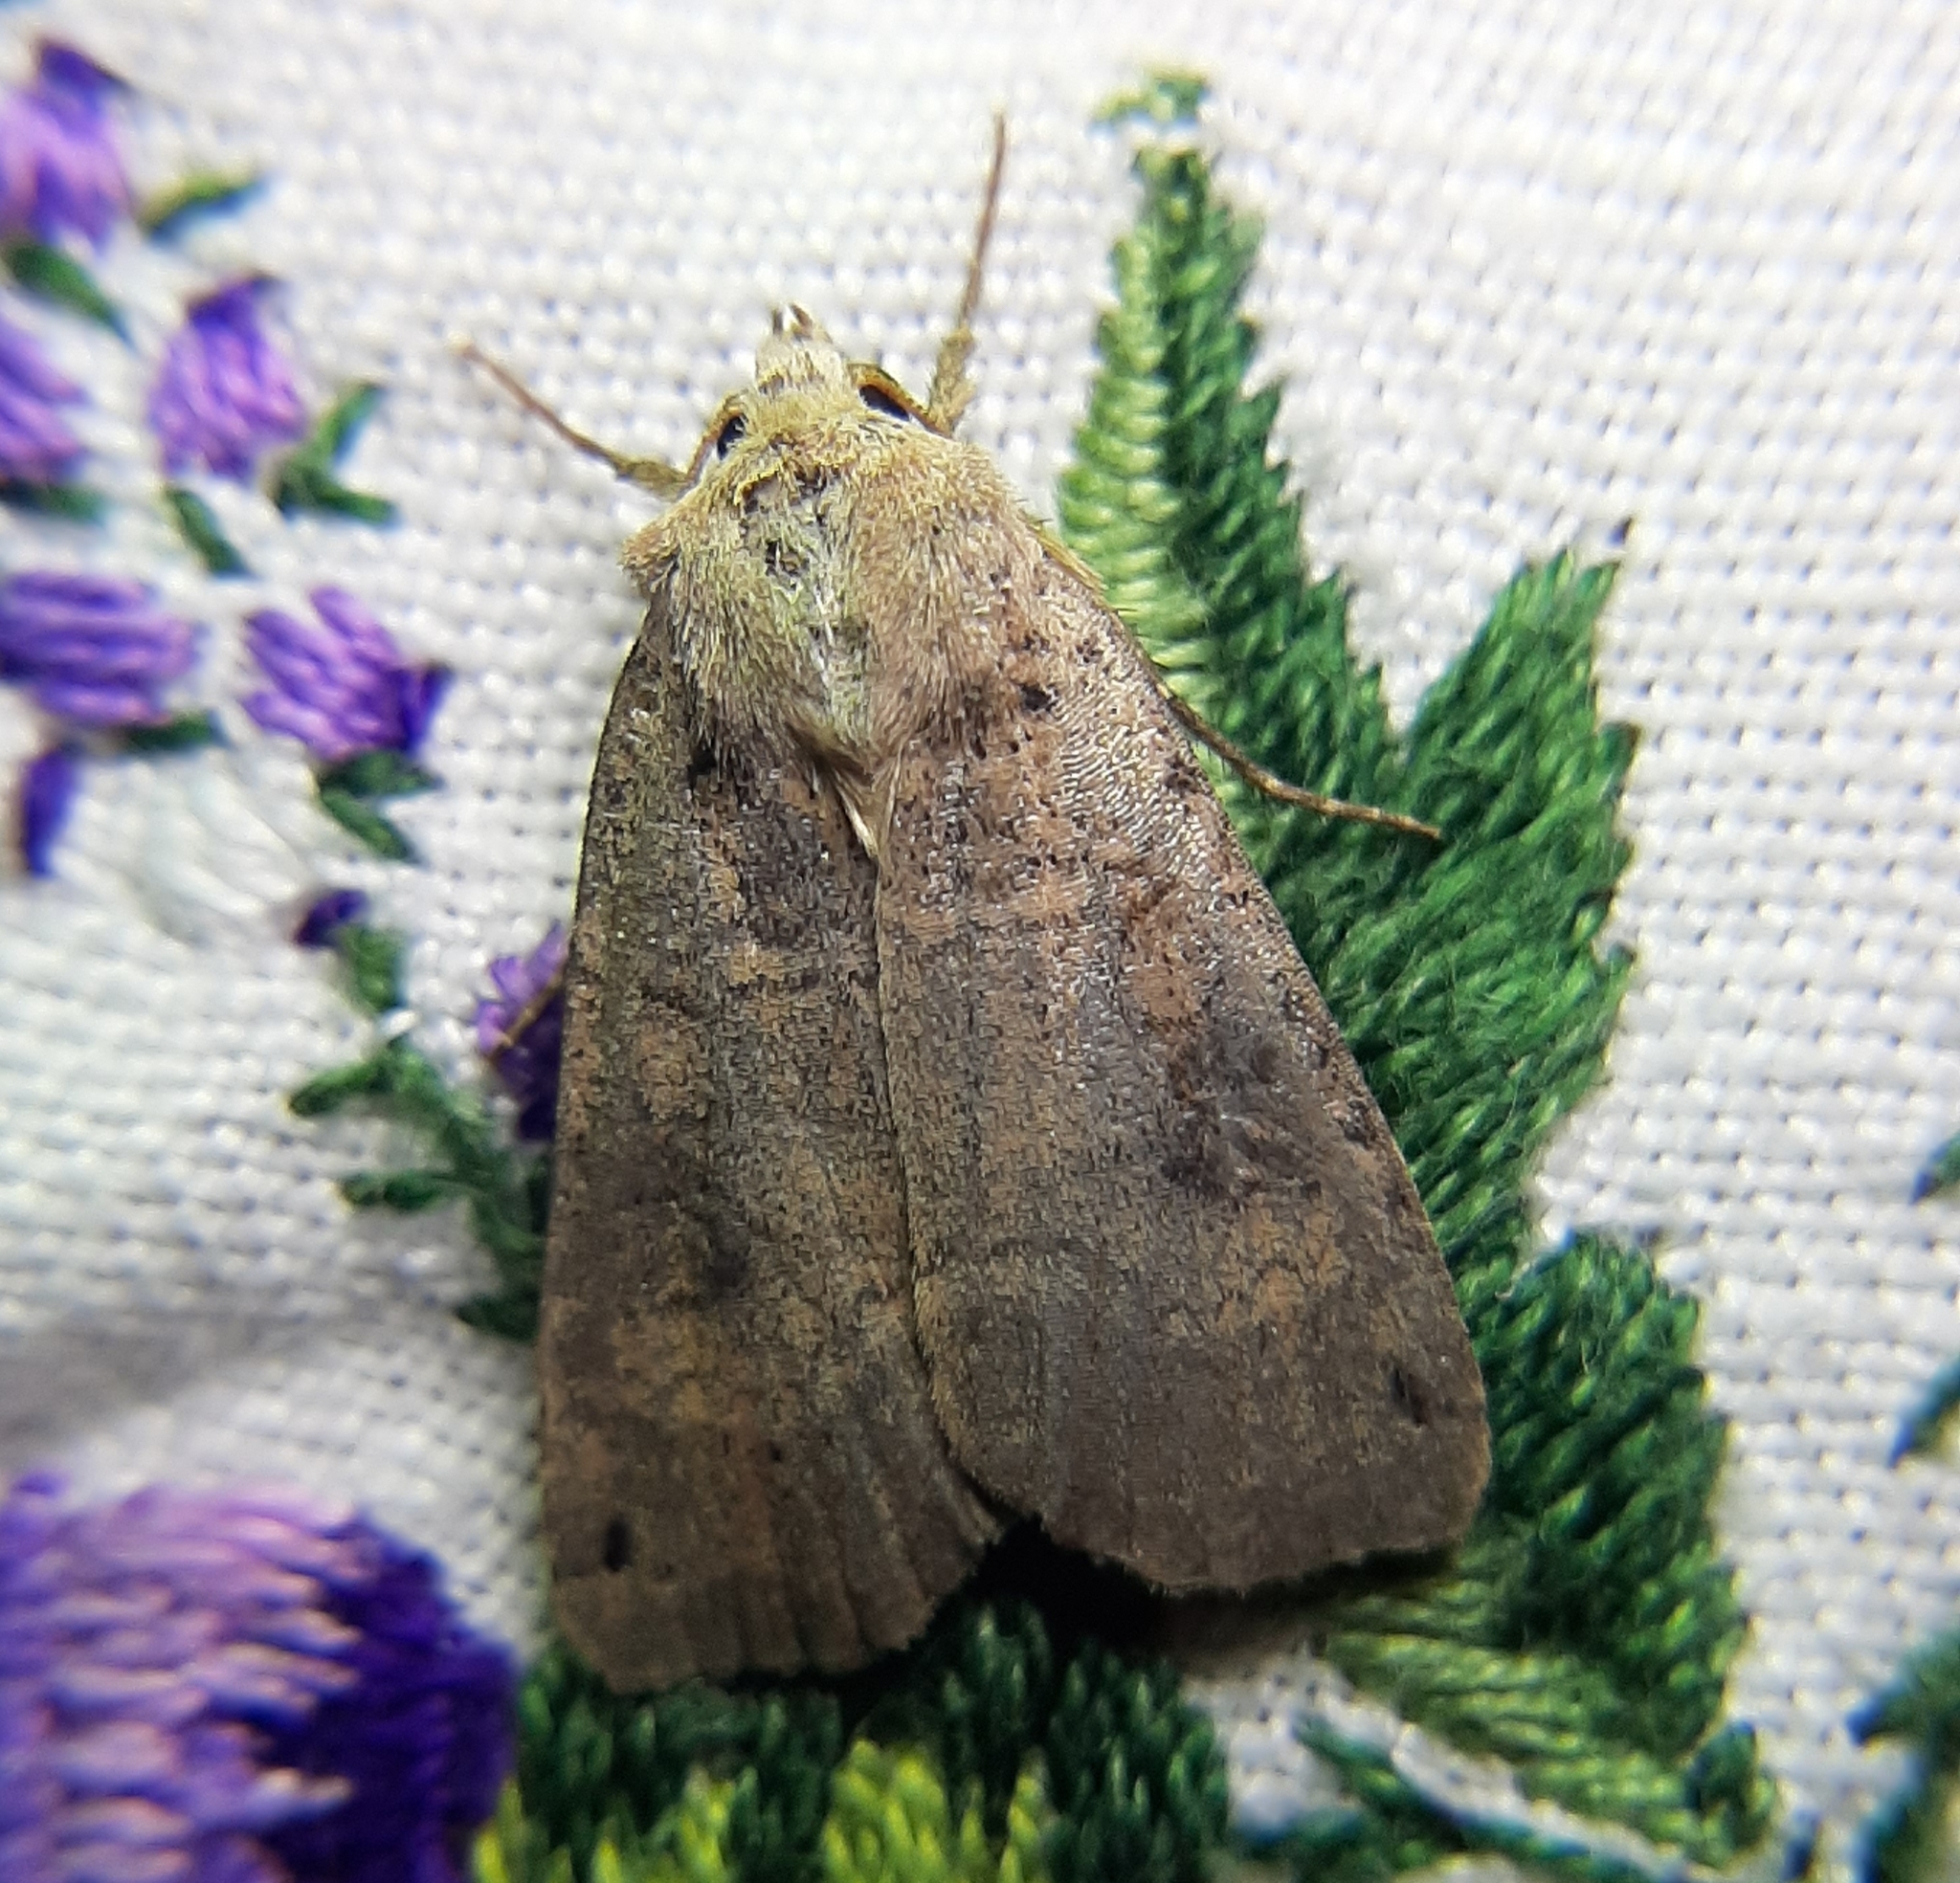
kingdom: Animalia
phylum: Arthropoda
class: Insecta
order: Lepidoptera
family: Noctuidae
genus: Xestia
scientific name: Xestia smithii
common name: Smith's dart
